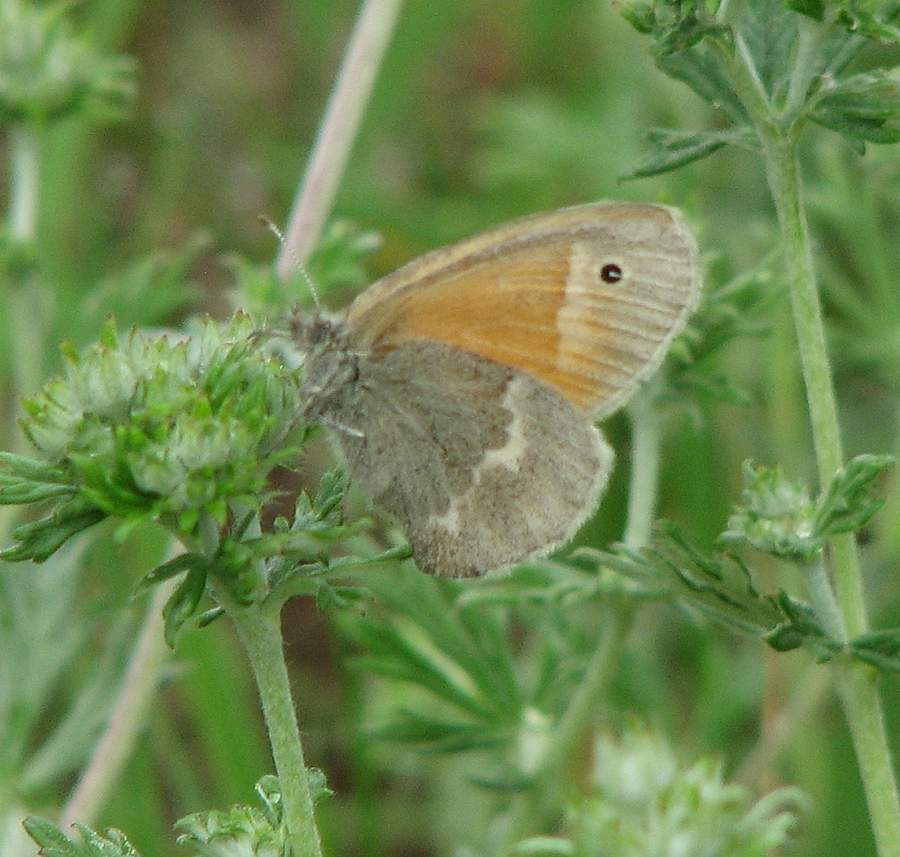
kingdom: Animalia
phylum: Arthropoda
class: Insecta
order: Lepidoptera
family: Nymphalidae
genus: Coenonympha
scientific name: Coenonympha california
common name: Common ringlet
